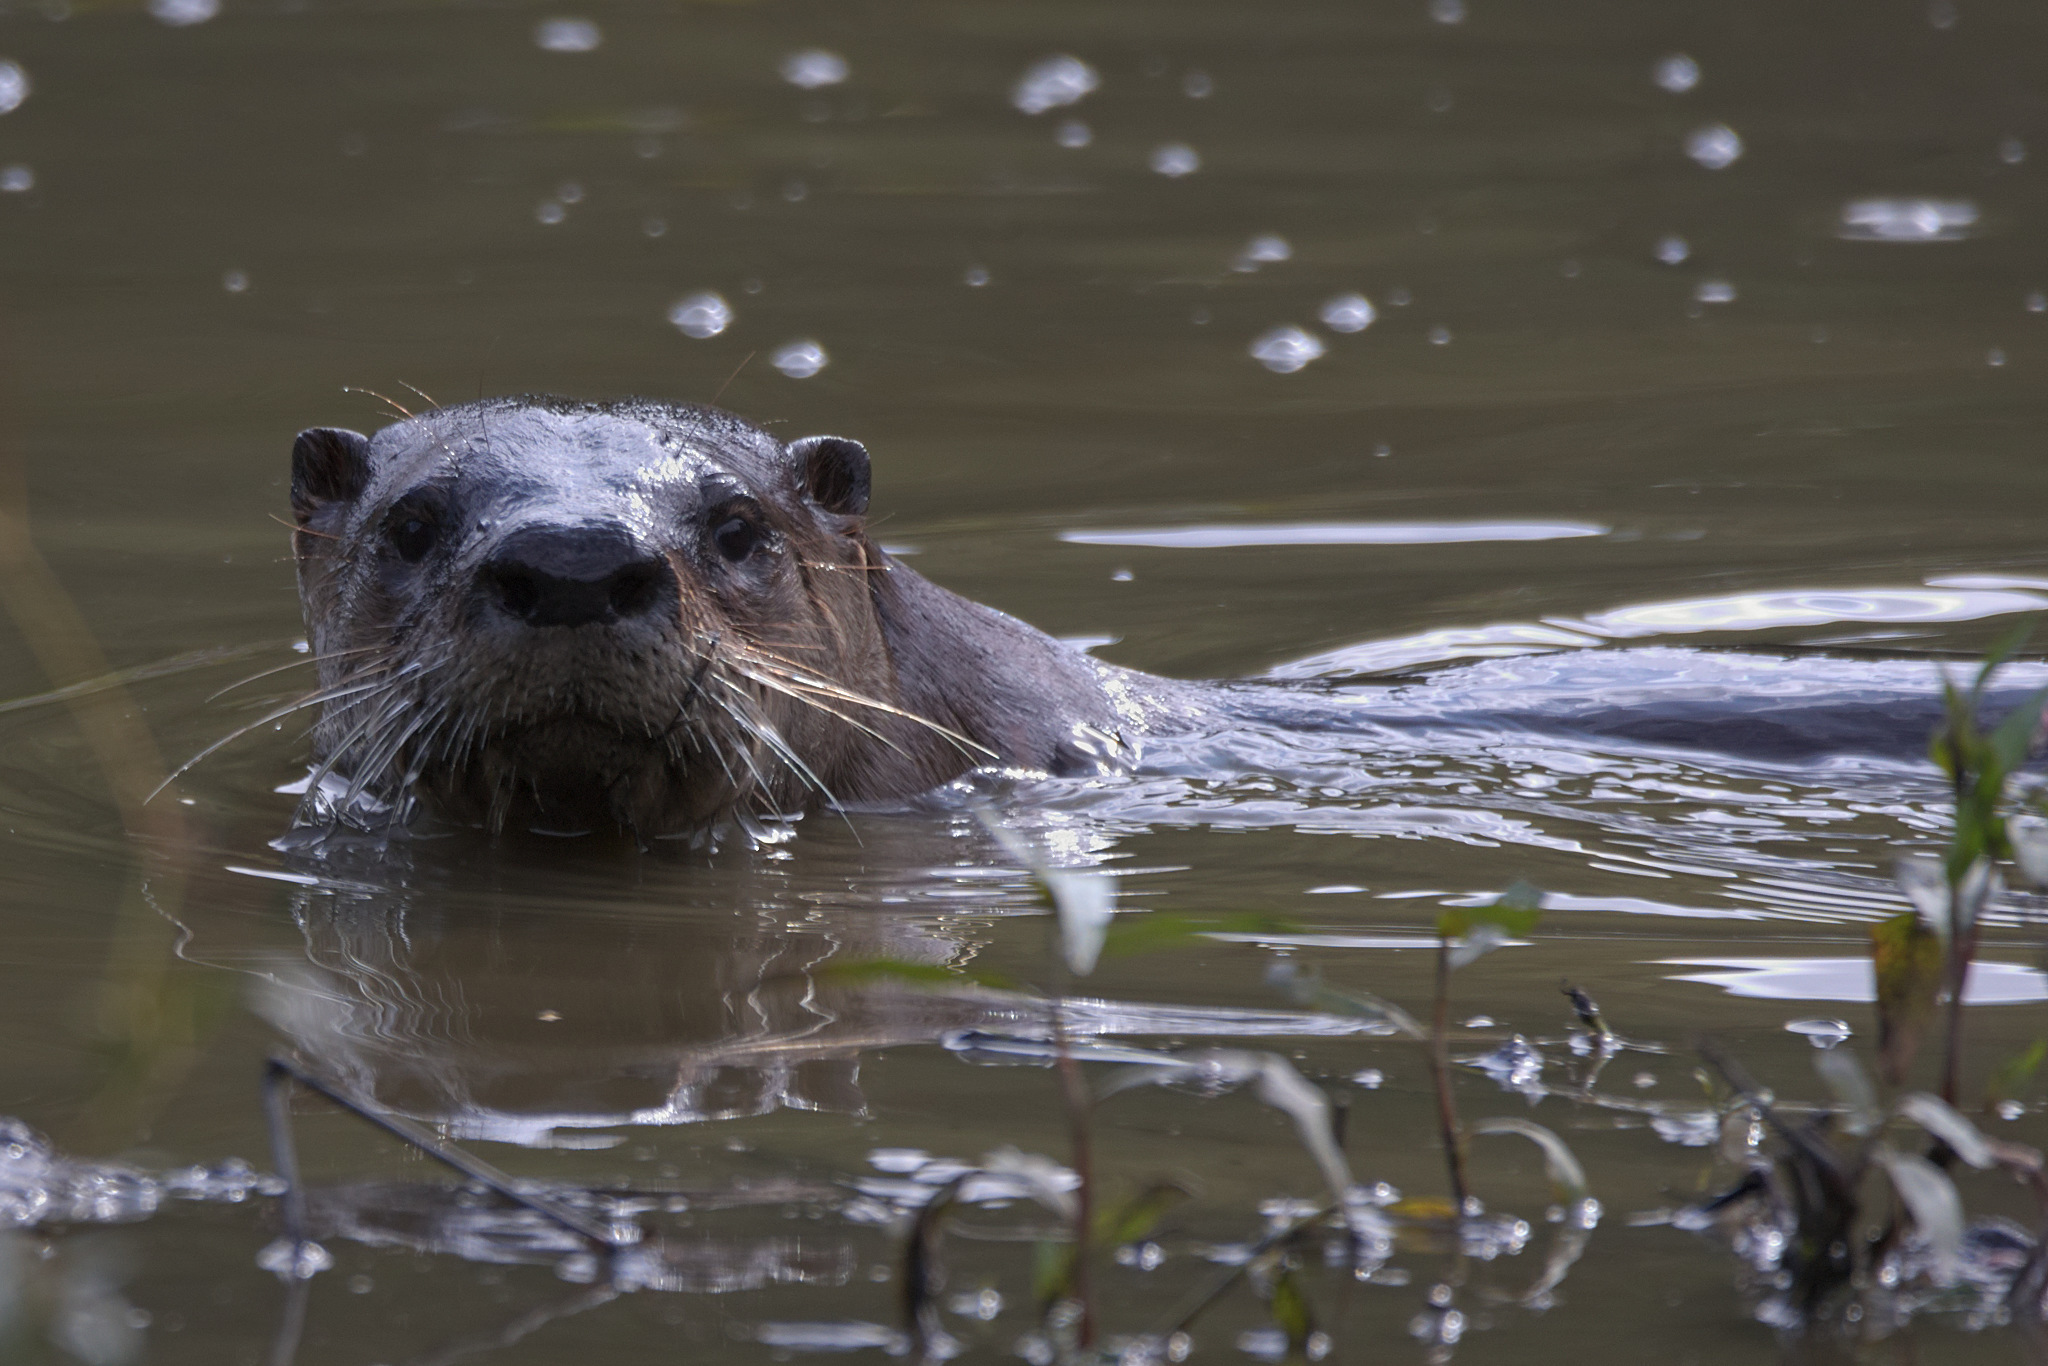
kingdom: Animalia
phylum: Chordata
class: Mammalia
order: Carnivora
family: Mustelidae
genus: Lontra
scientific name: Lontra canadensis
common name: North american river otter
